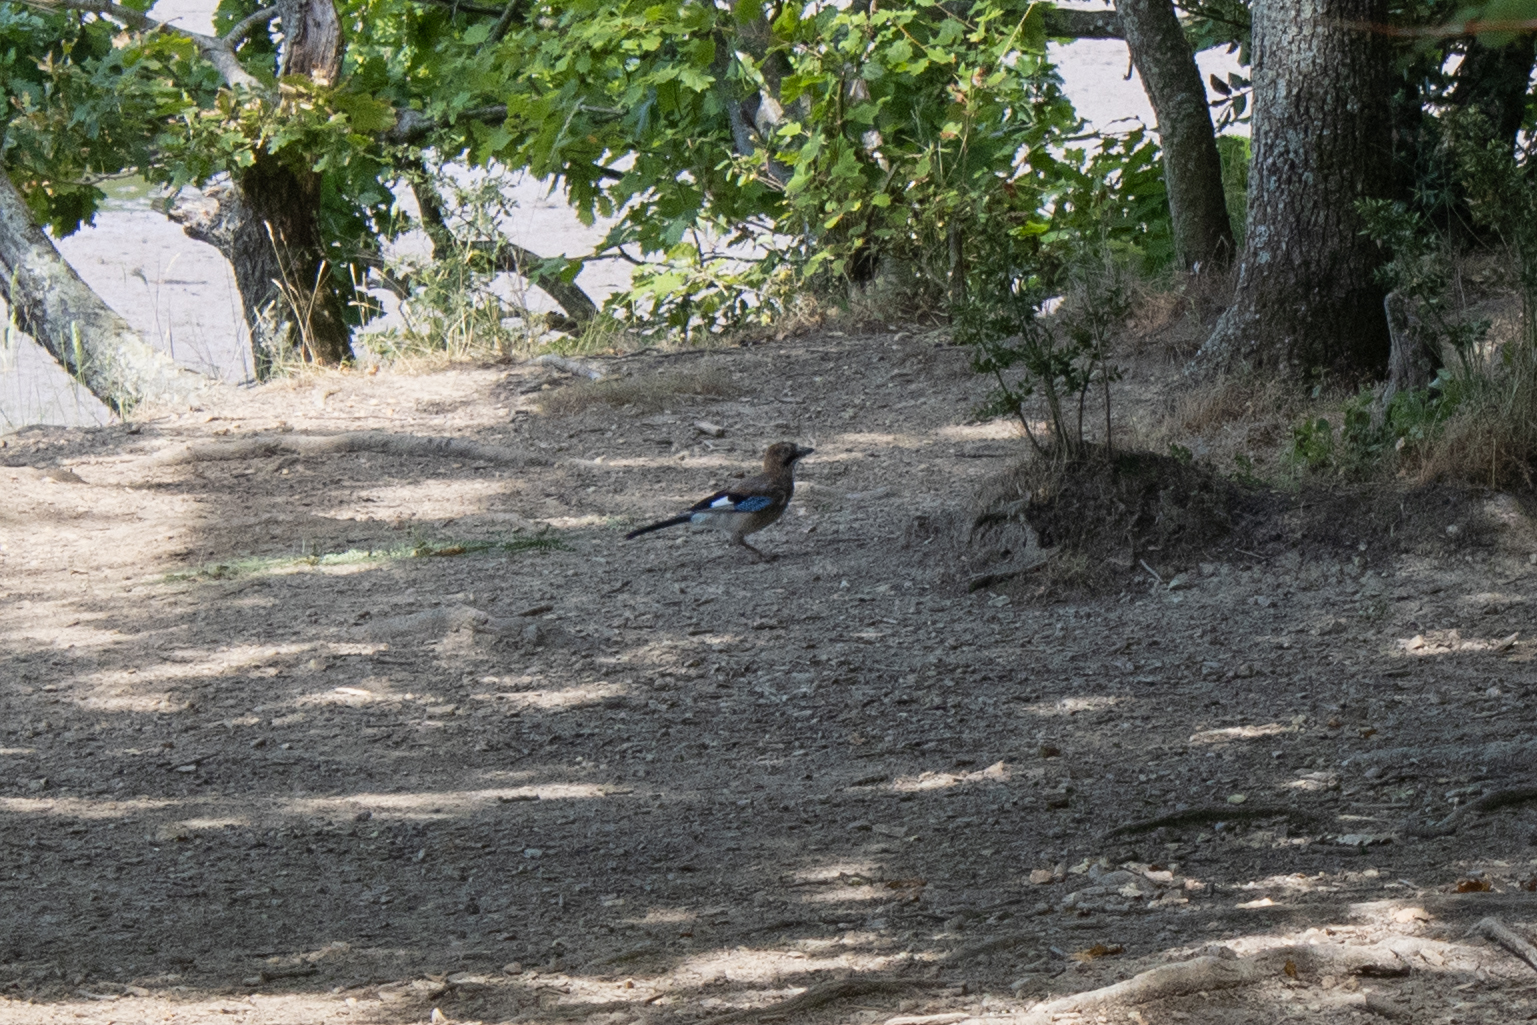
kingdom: Animalia
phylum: Chordata
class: Aves
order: Passeriformes
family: Corvidae
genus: Garrulus
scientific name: Garrulus glandarius
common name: Eurasian jay
